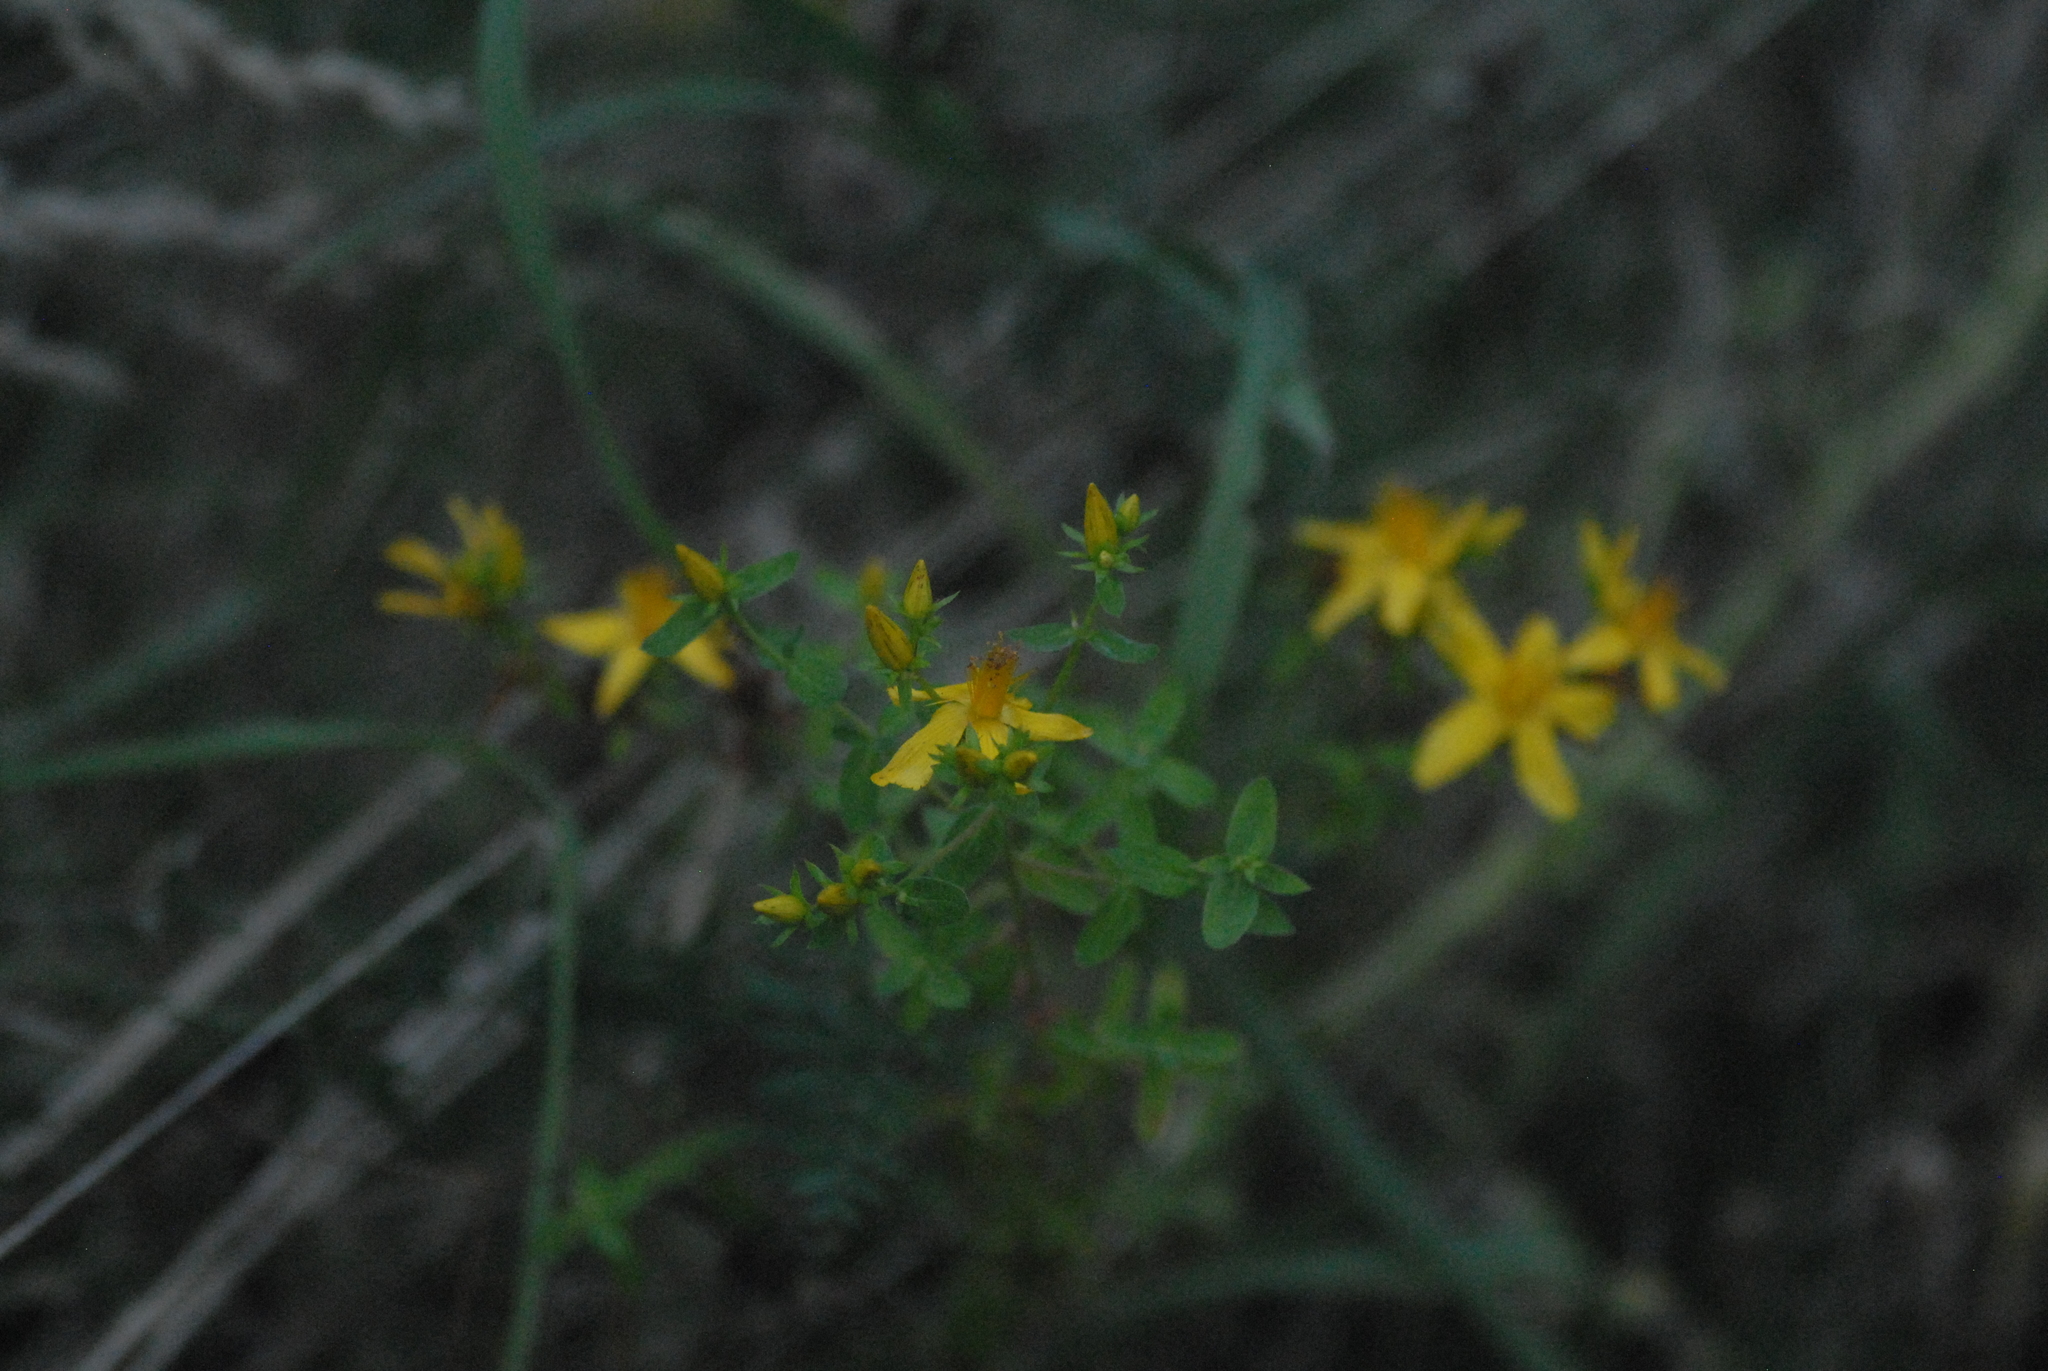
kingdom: Plantae
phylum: Tracheophyta
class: Magnoliopsida
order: Malpighiales
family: Hypericaceae
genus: Hypericum
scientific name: Hypericum perforatum
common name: Common st. johnswort
